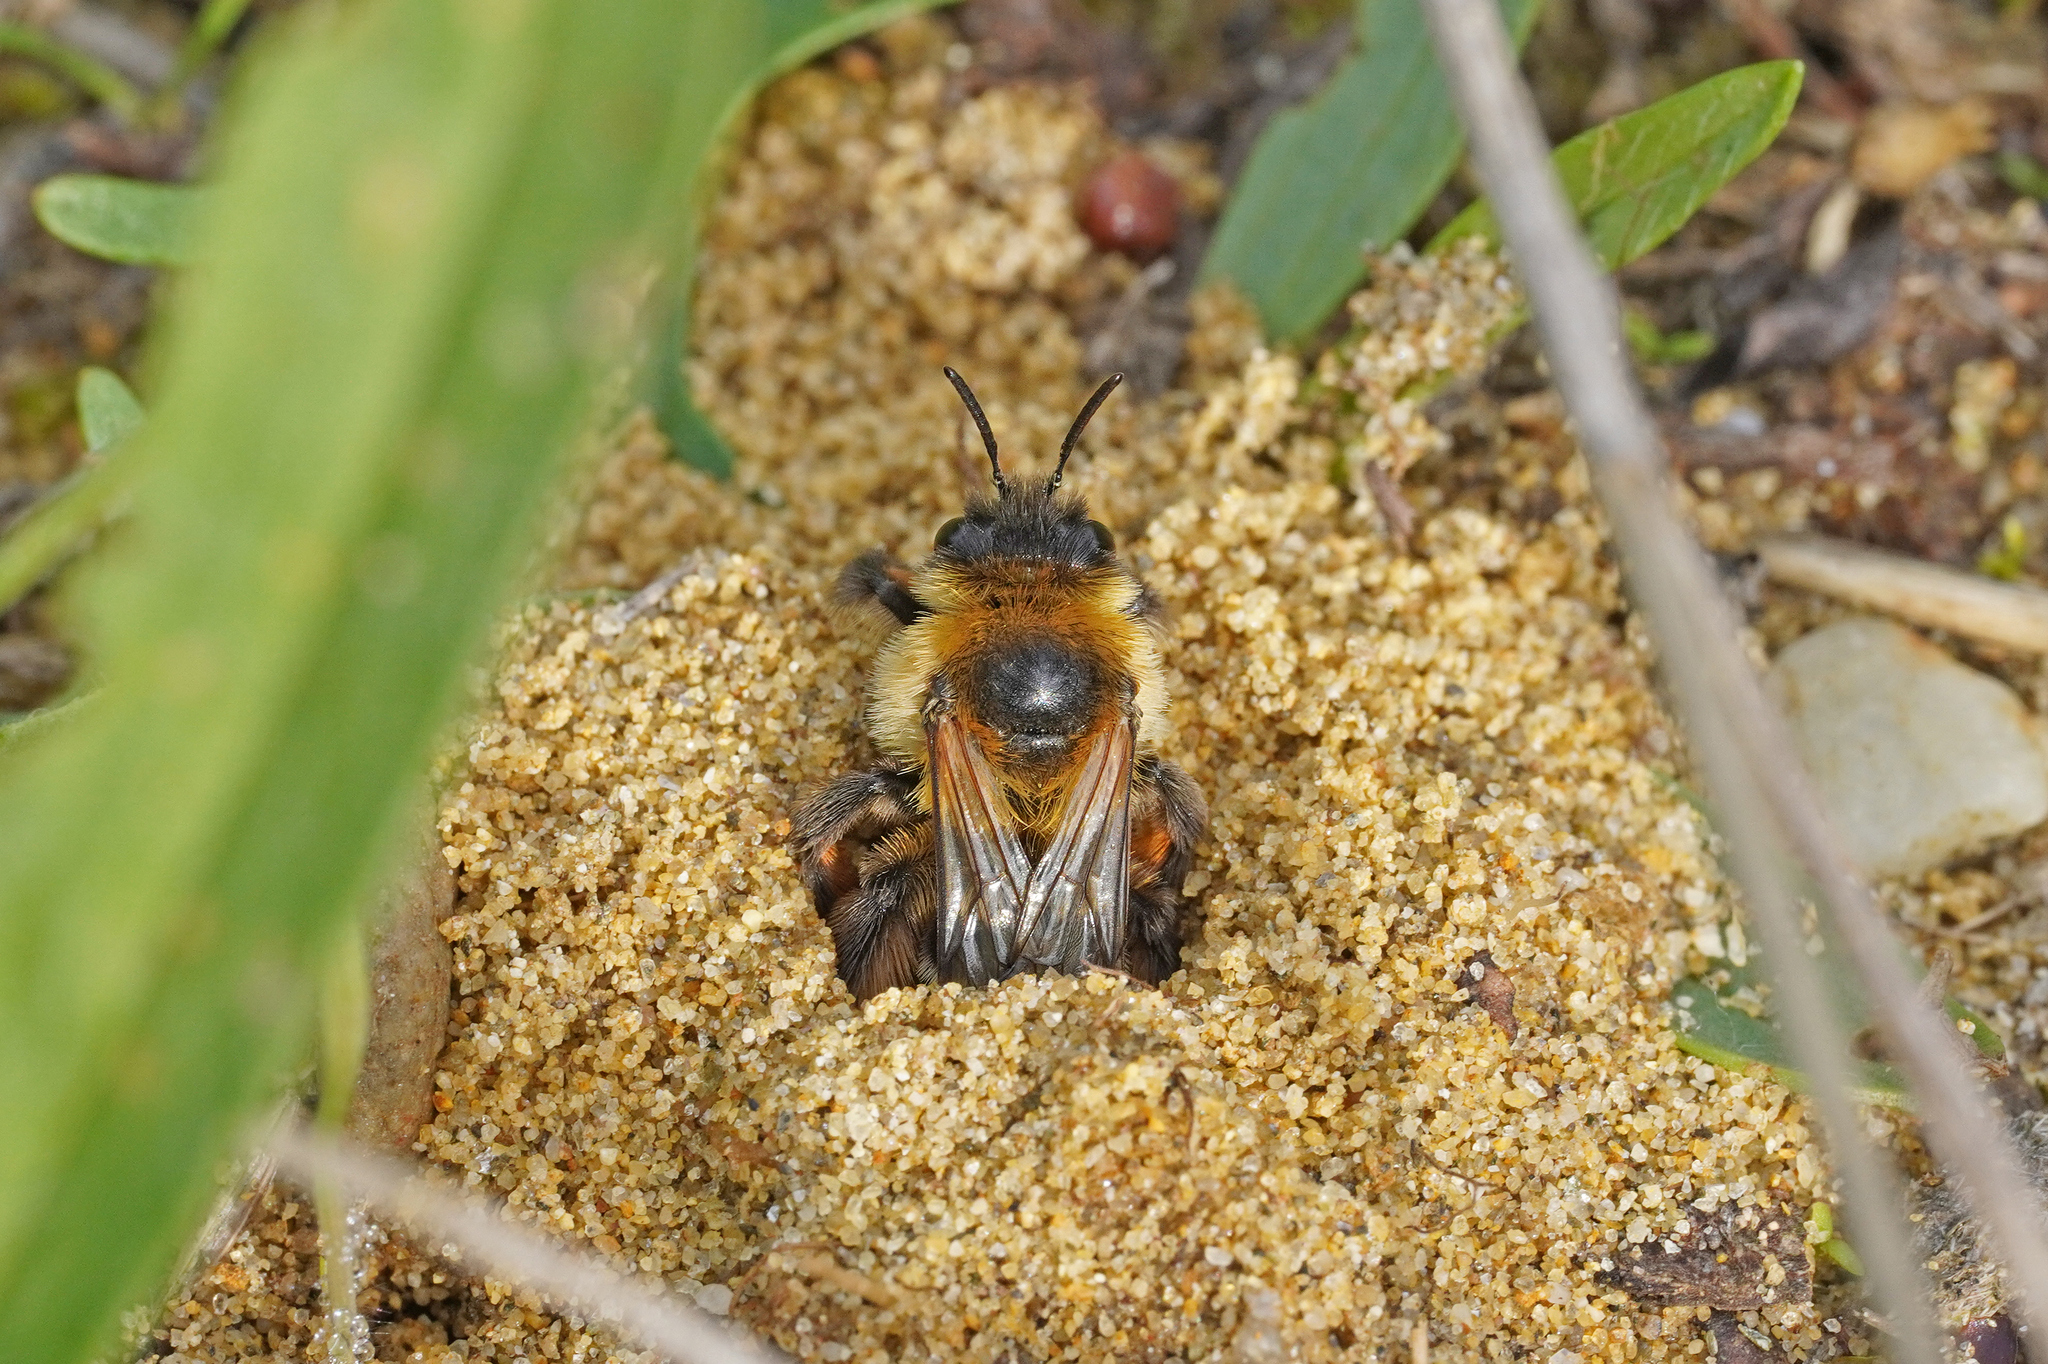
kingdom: Animalia
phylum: Arthropoda
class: Insecta
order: Hymenoptera
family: Melittidae
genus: Dasypoda
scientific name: Dasypoda hirtipes
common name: Pantaloon bee
